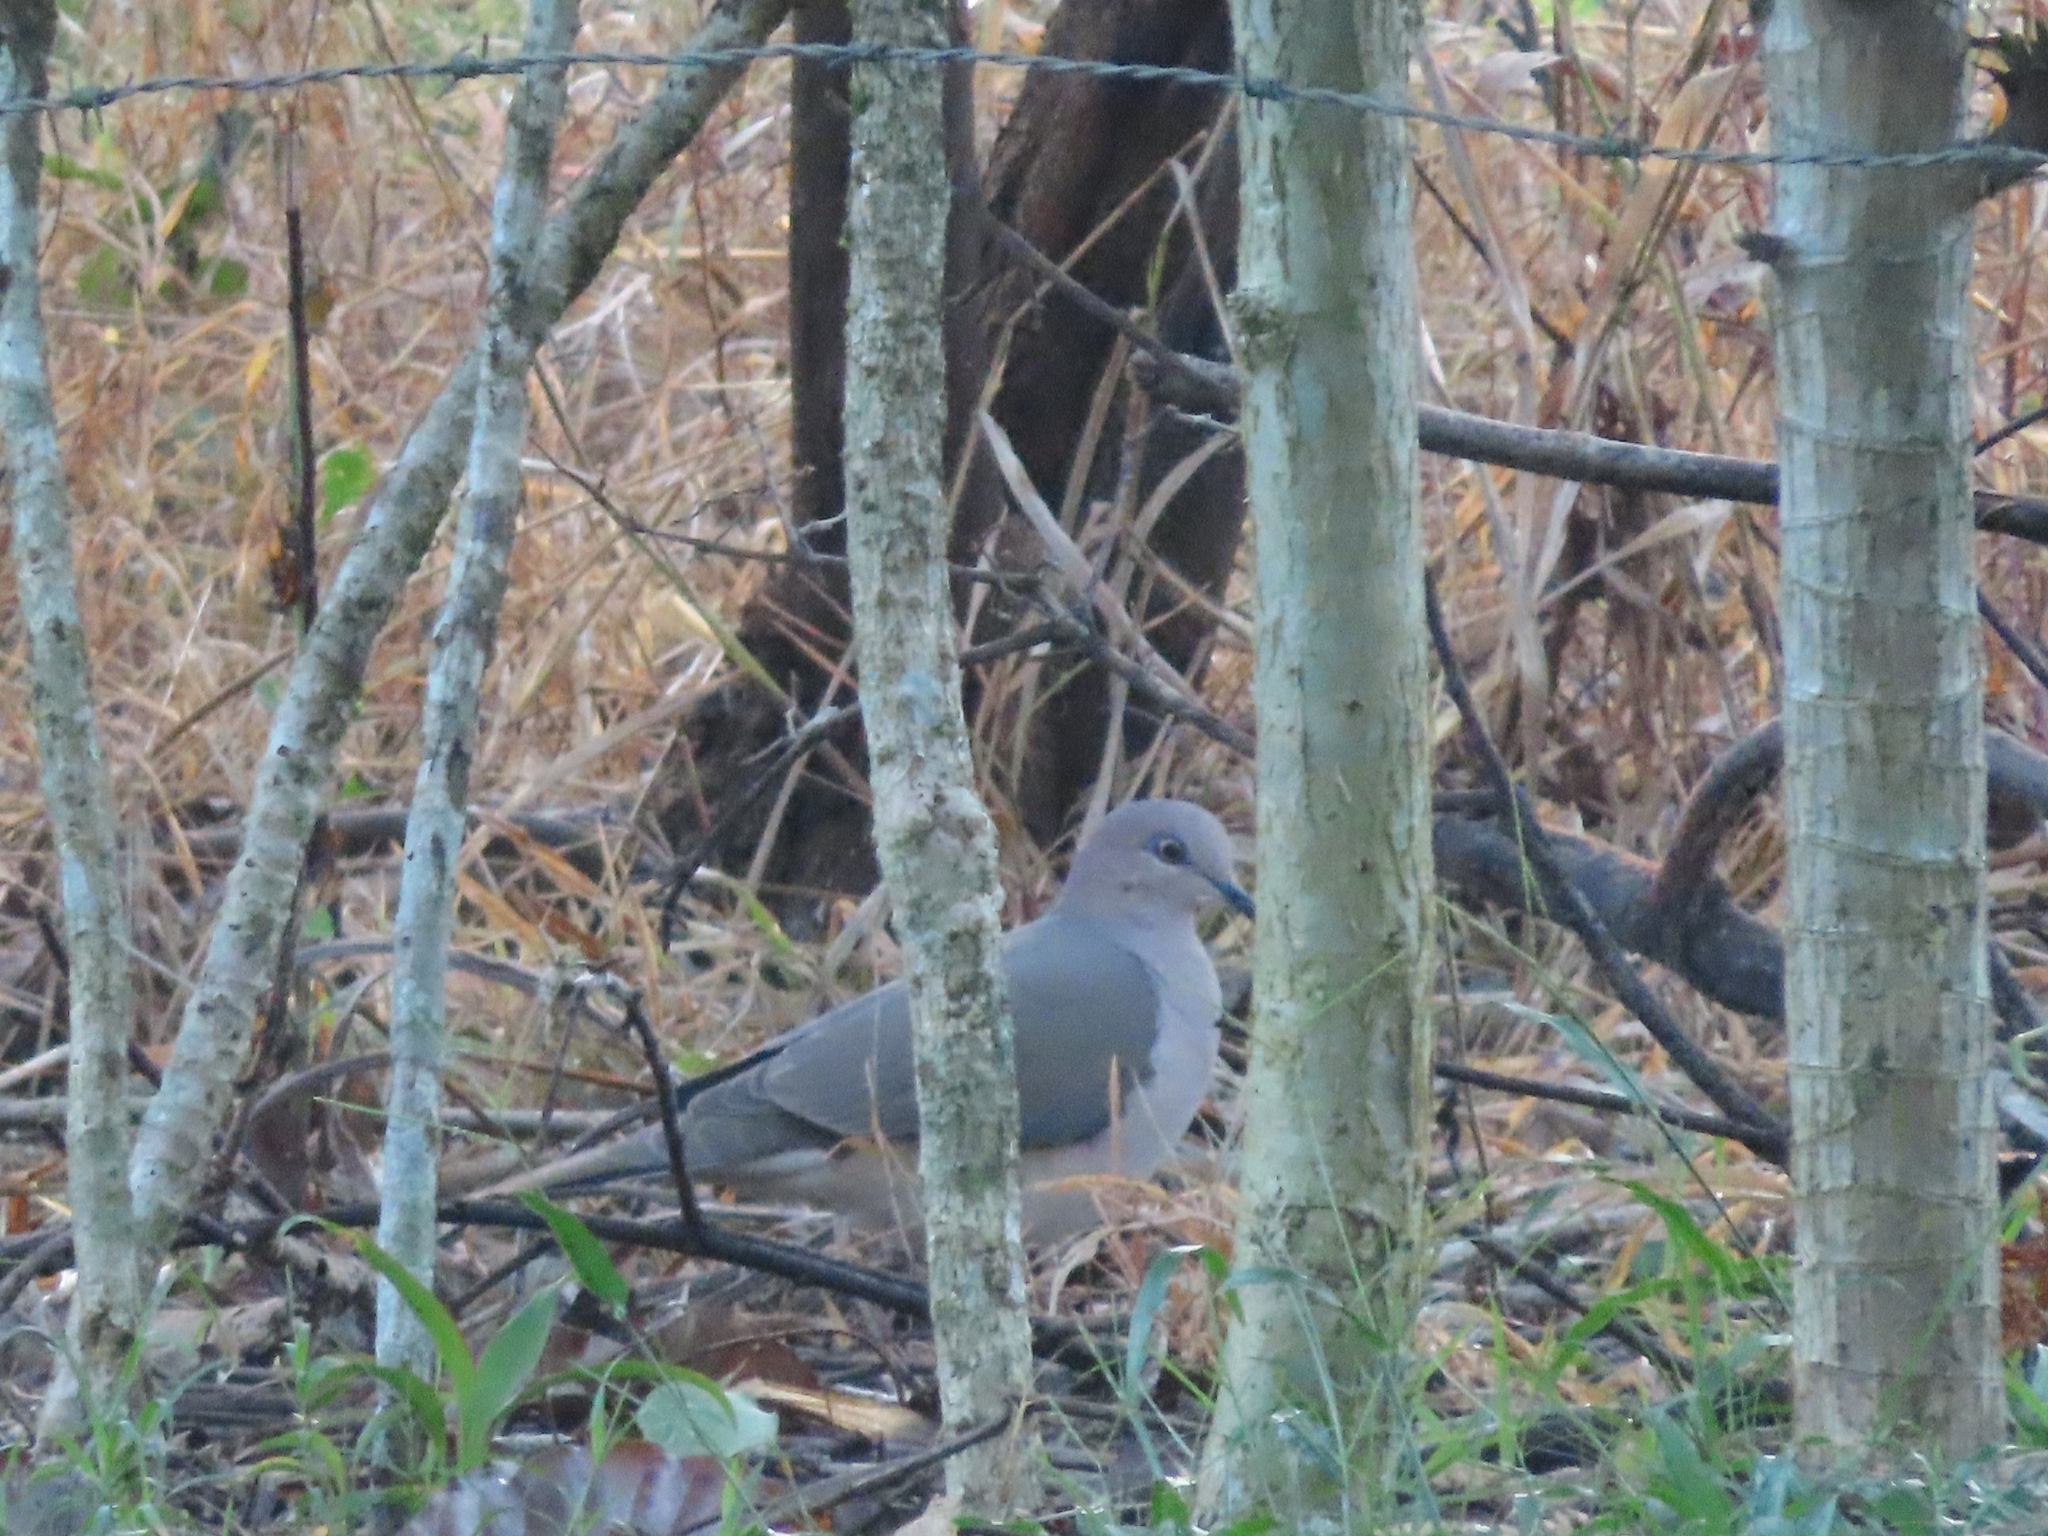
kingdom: Animalia
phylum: Chordata
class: Aves
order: Columbiformes
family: Columbidae
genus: Leptotila
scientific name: Leptotila verreauxi
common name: White-tipped dove
